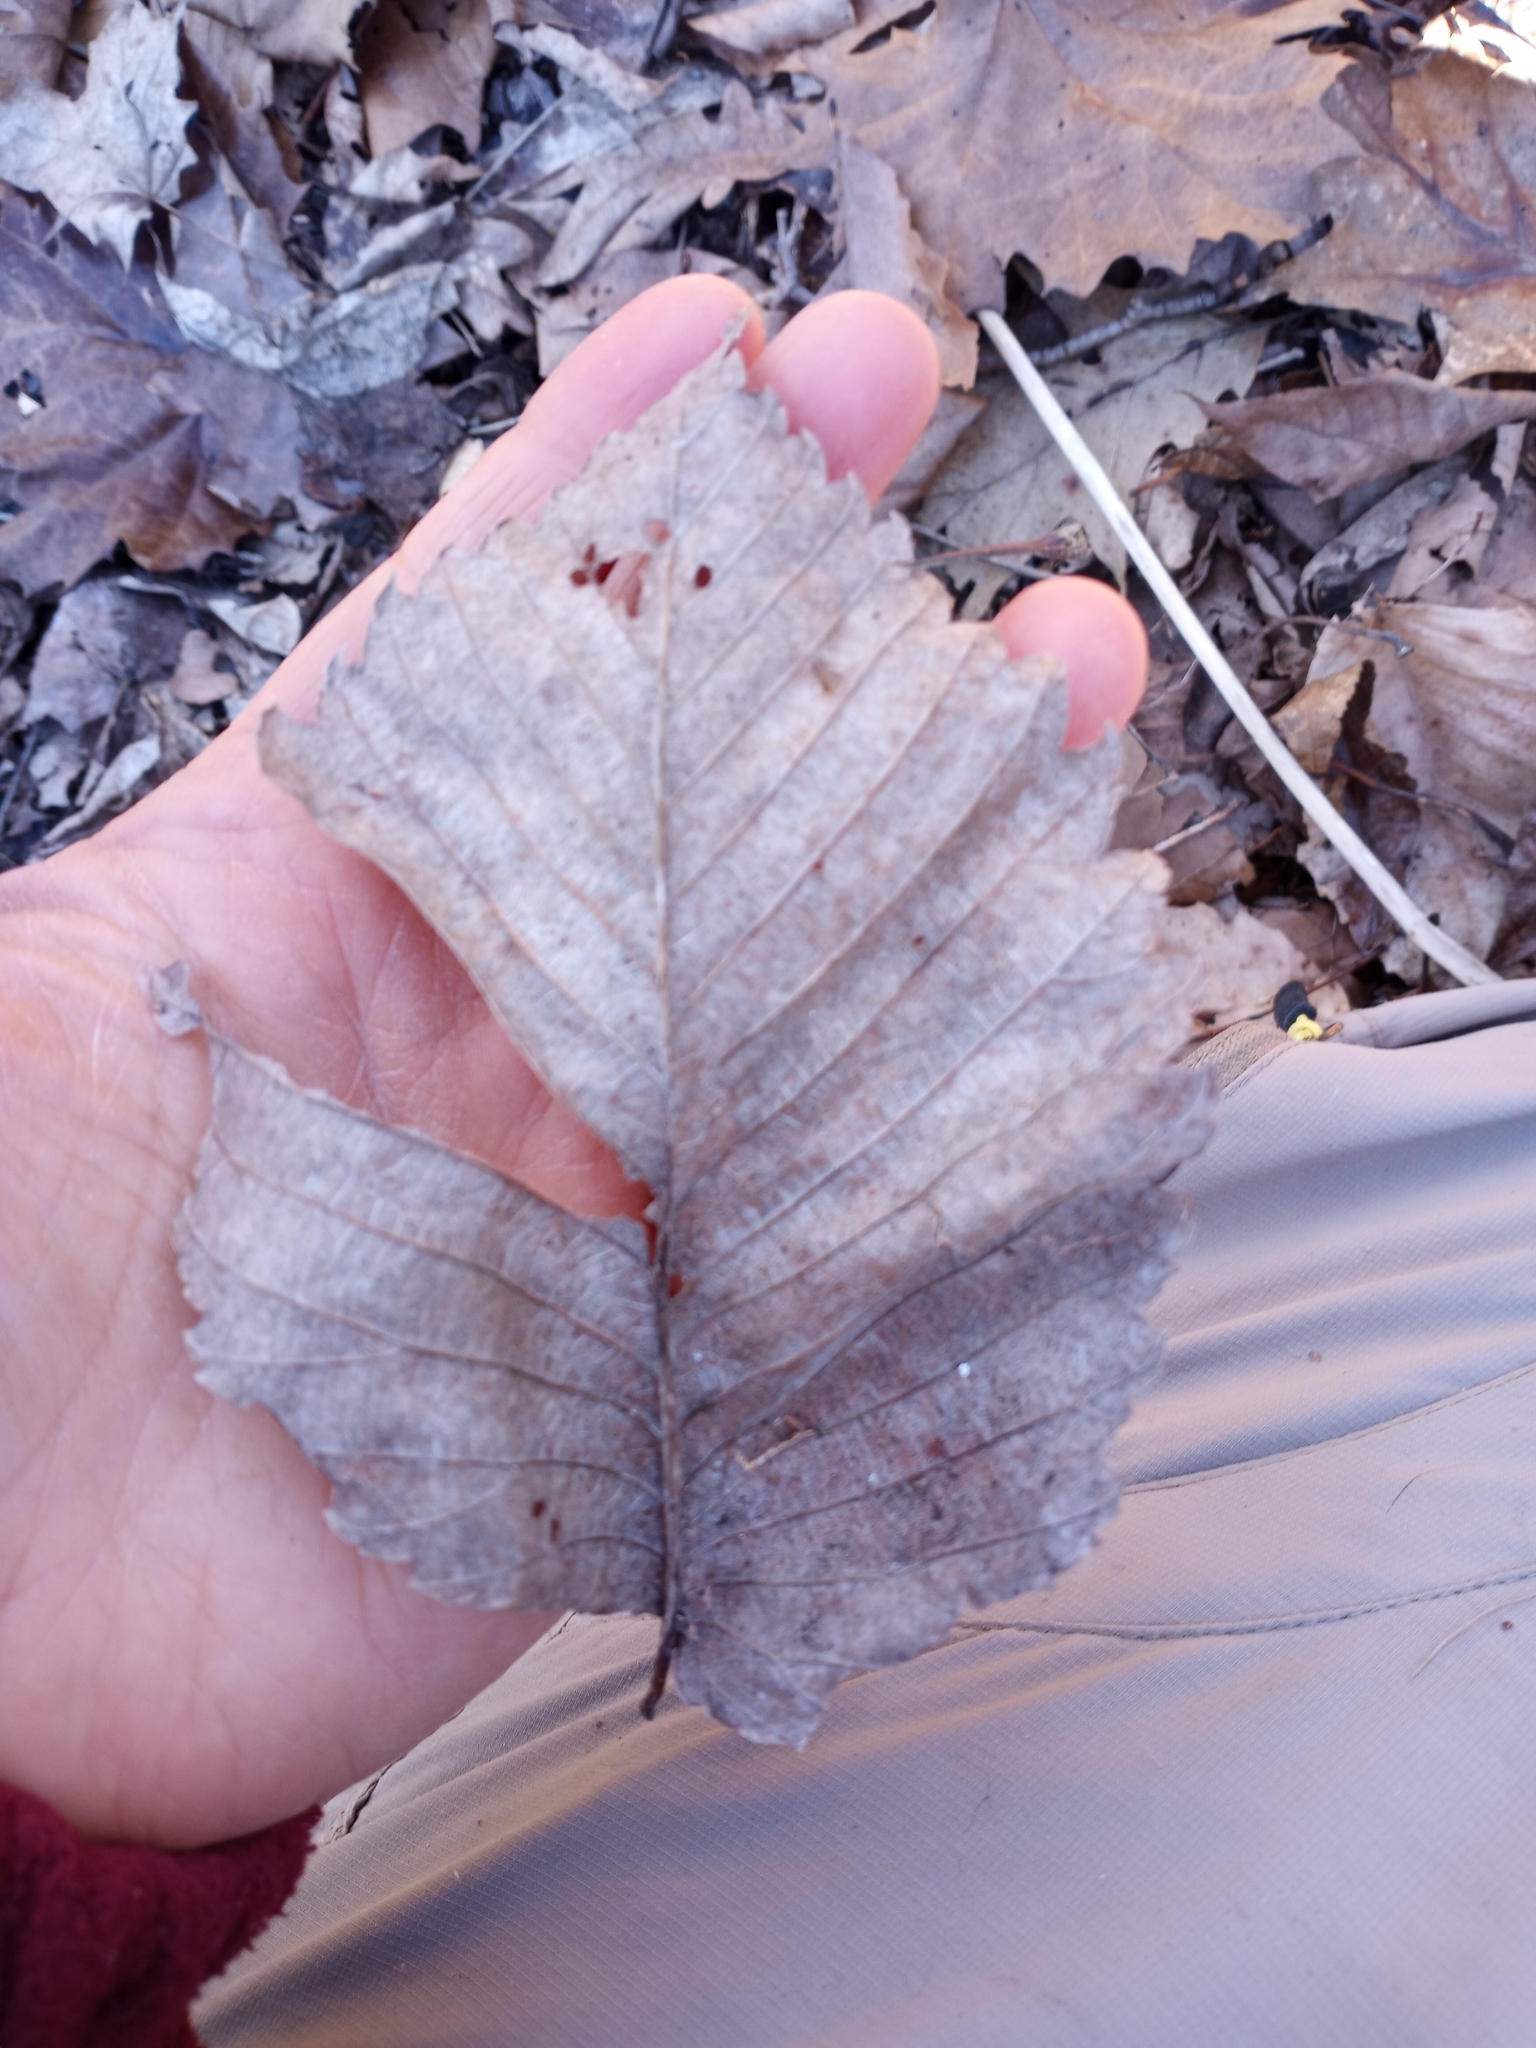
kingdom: Plantae
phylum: Tracheophyta
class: Magnoliopsida
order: Rosales
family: Ulmaceae
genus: Ulmus
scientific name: Ulmus americana
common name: American elm
